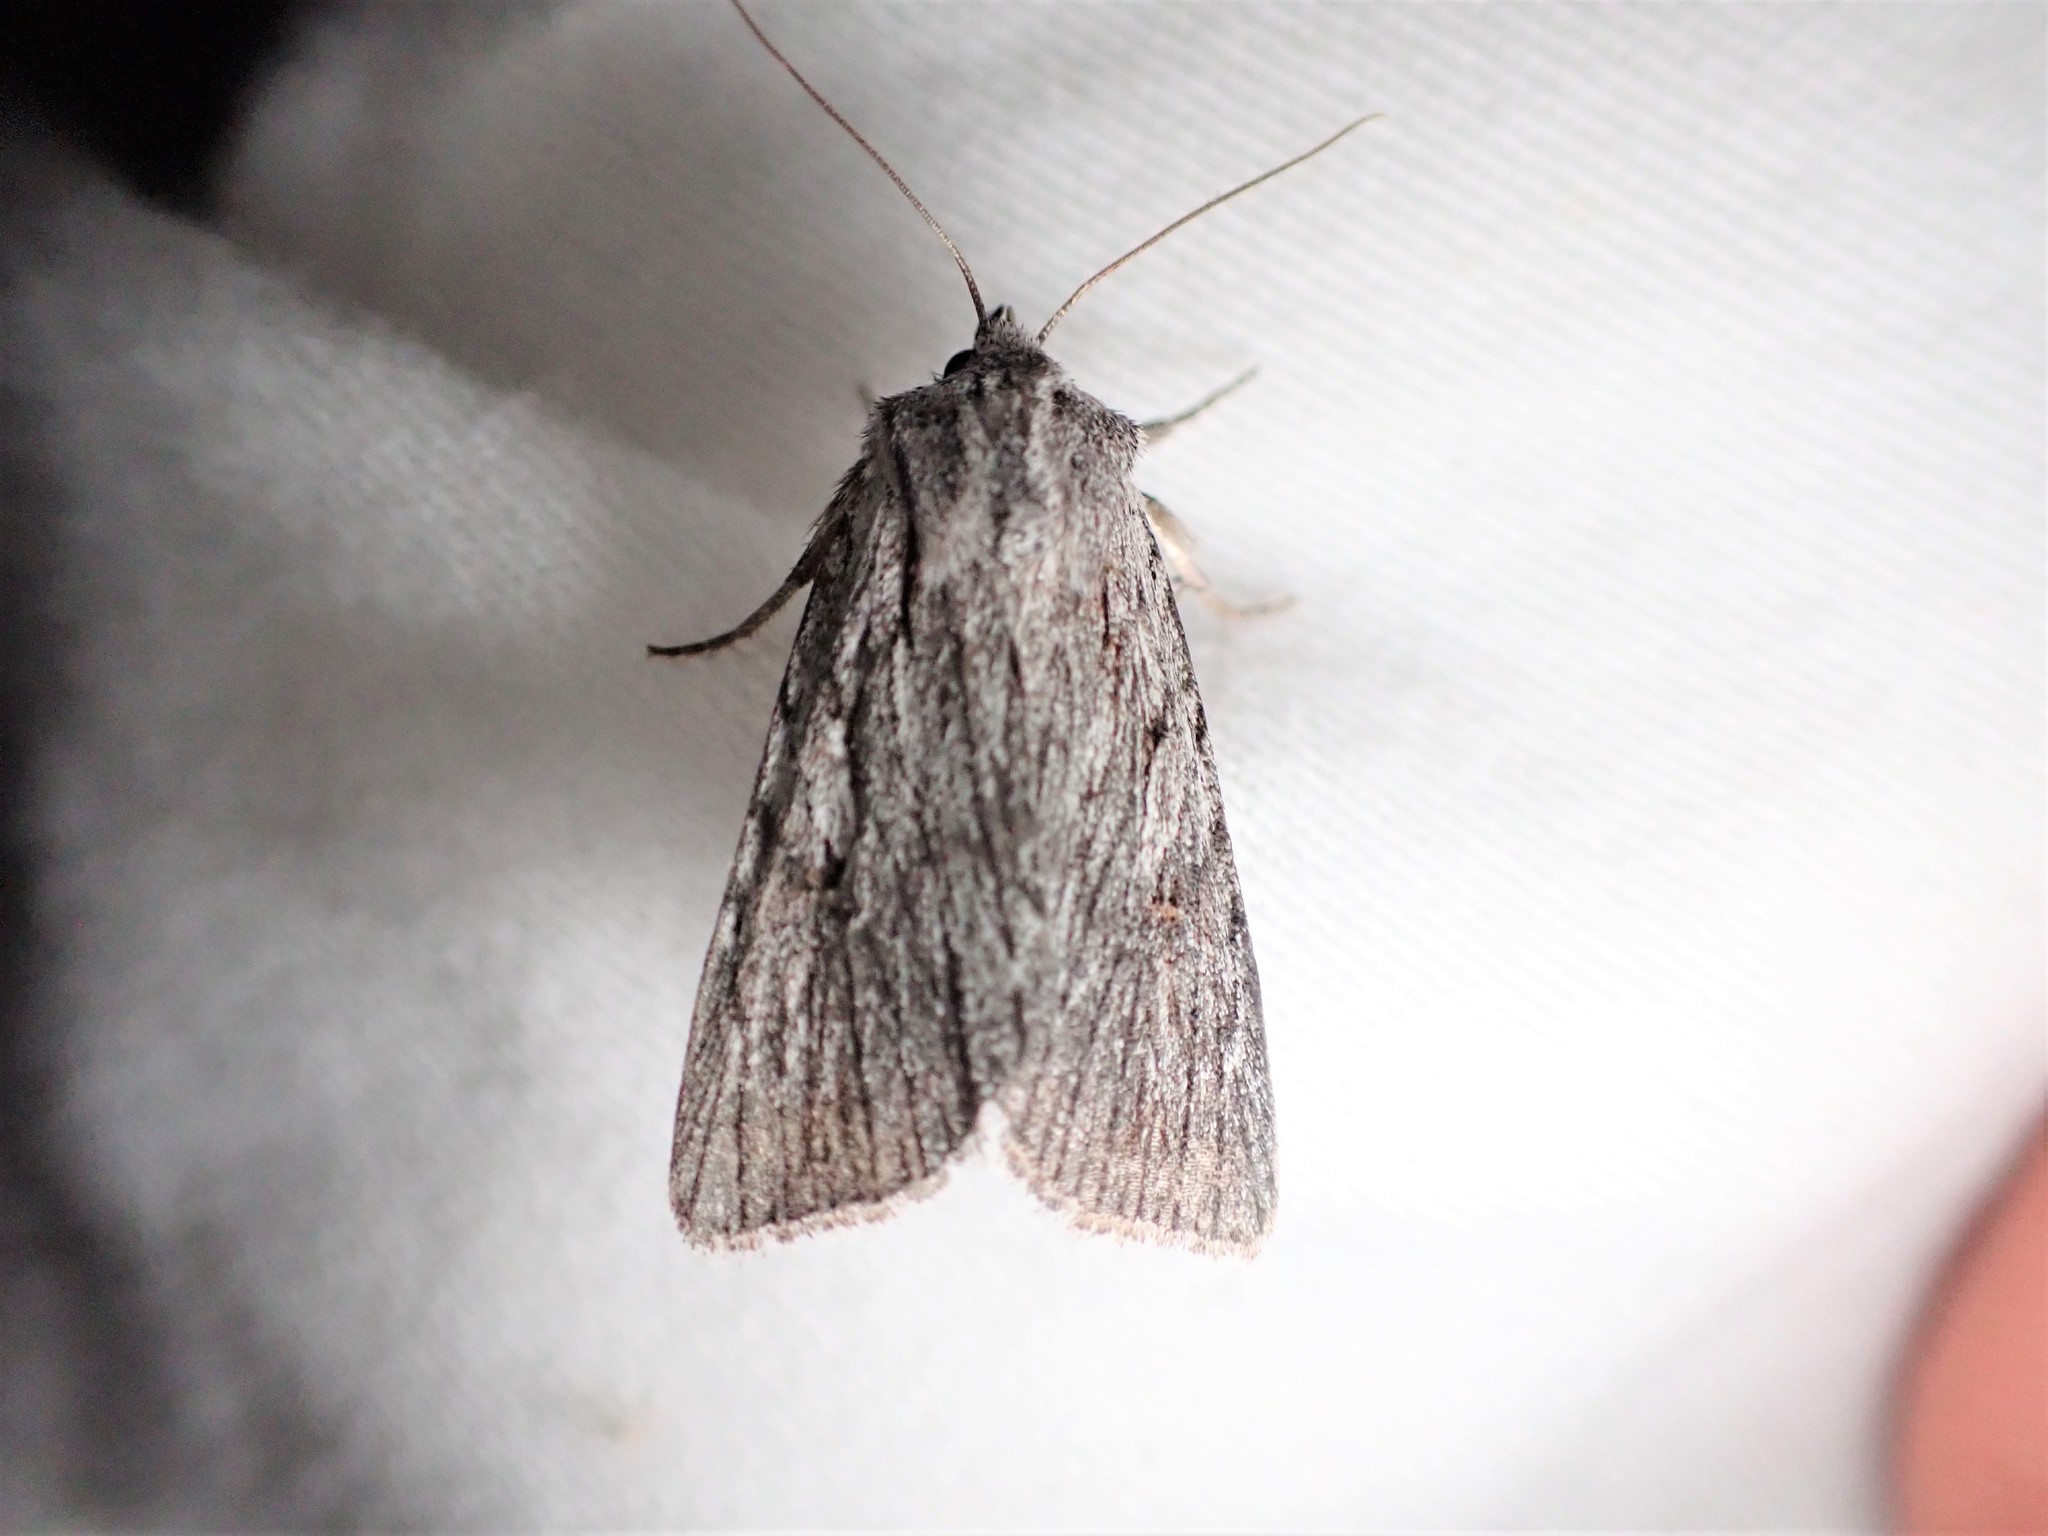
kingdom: Animalia
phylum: Arthropoda
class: Insecta
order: Lepidoptera
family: Noctuidae
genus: Sympistis
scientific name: Sympistis major
